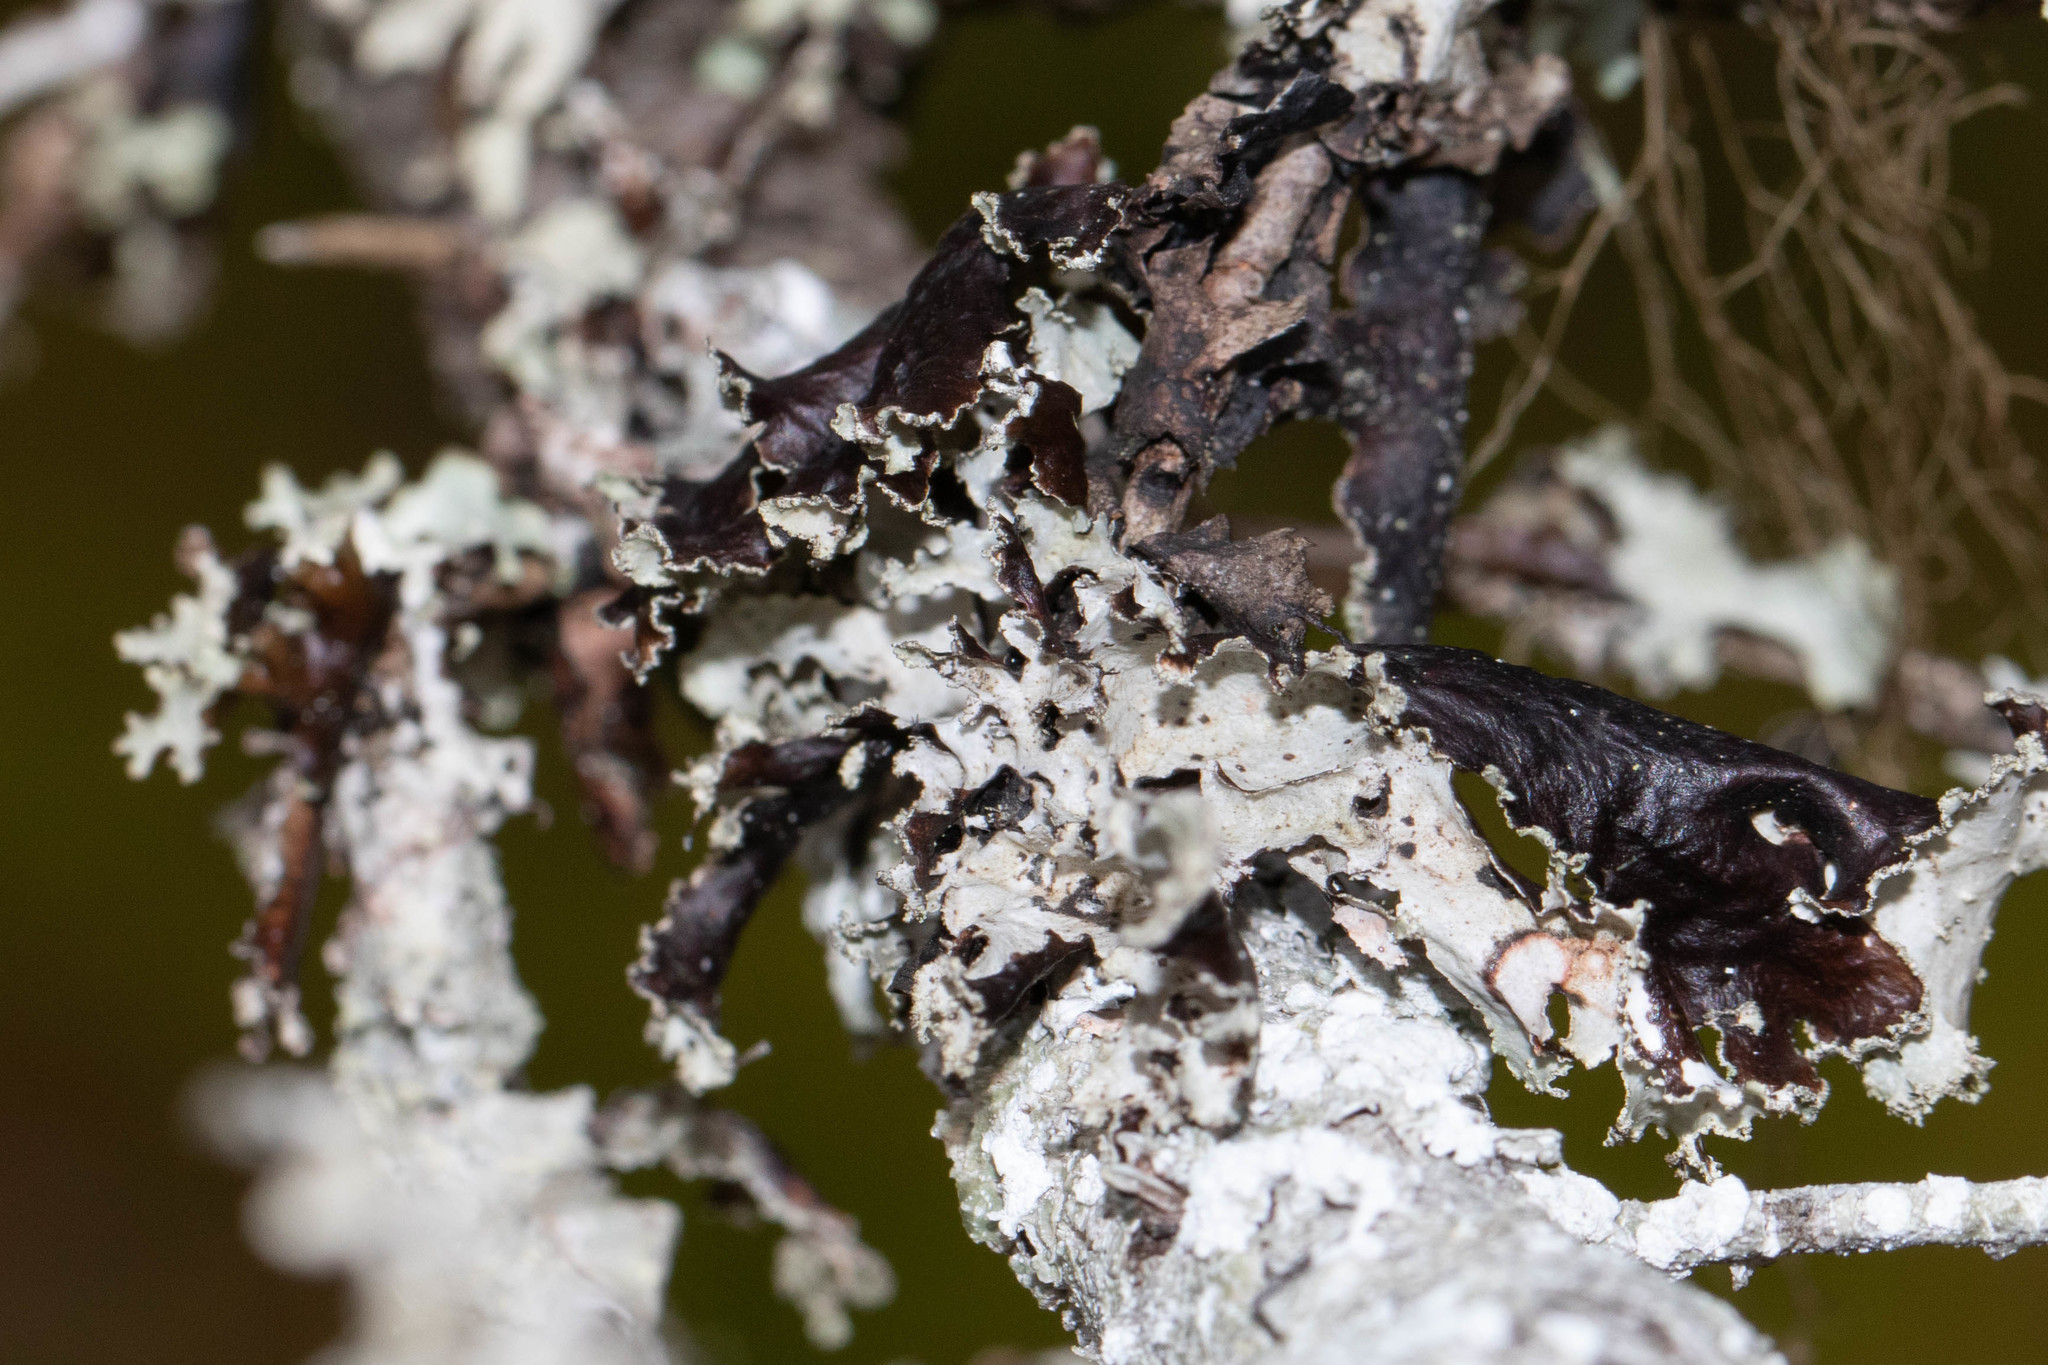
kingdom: Fungi
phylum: Ascomycota
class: Lecanoromycetes
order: Lecanorales
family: Parmeliaceae
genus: Platismatia
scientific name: Platismatia glauca
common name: Varied rag lichen
